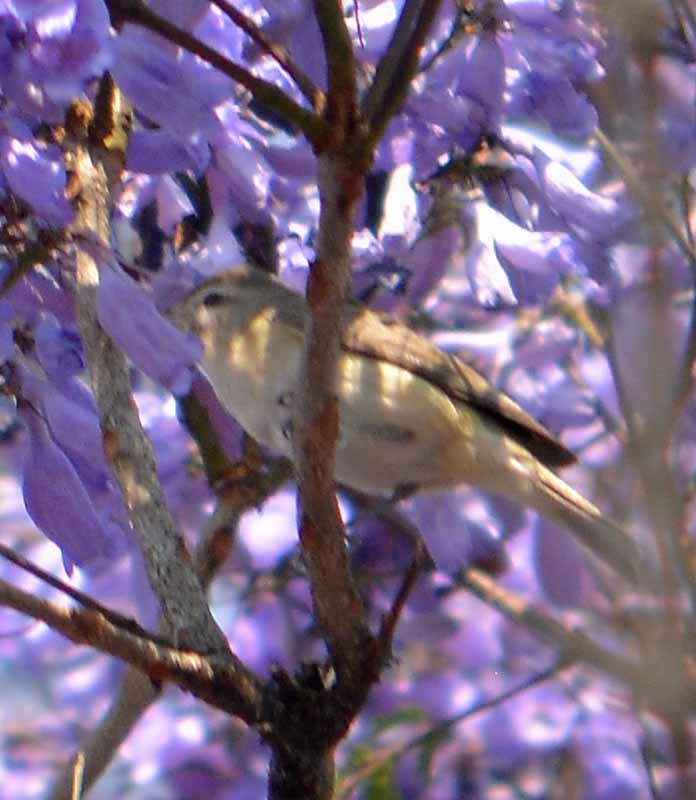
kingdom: Animalia
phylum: Chordata
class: Aves
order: Passeriformes
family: Vireonidae
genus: Vireo
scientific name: Vireo gilvus
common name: Warbling vireo
